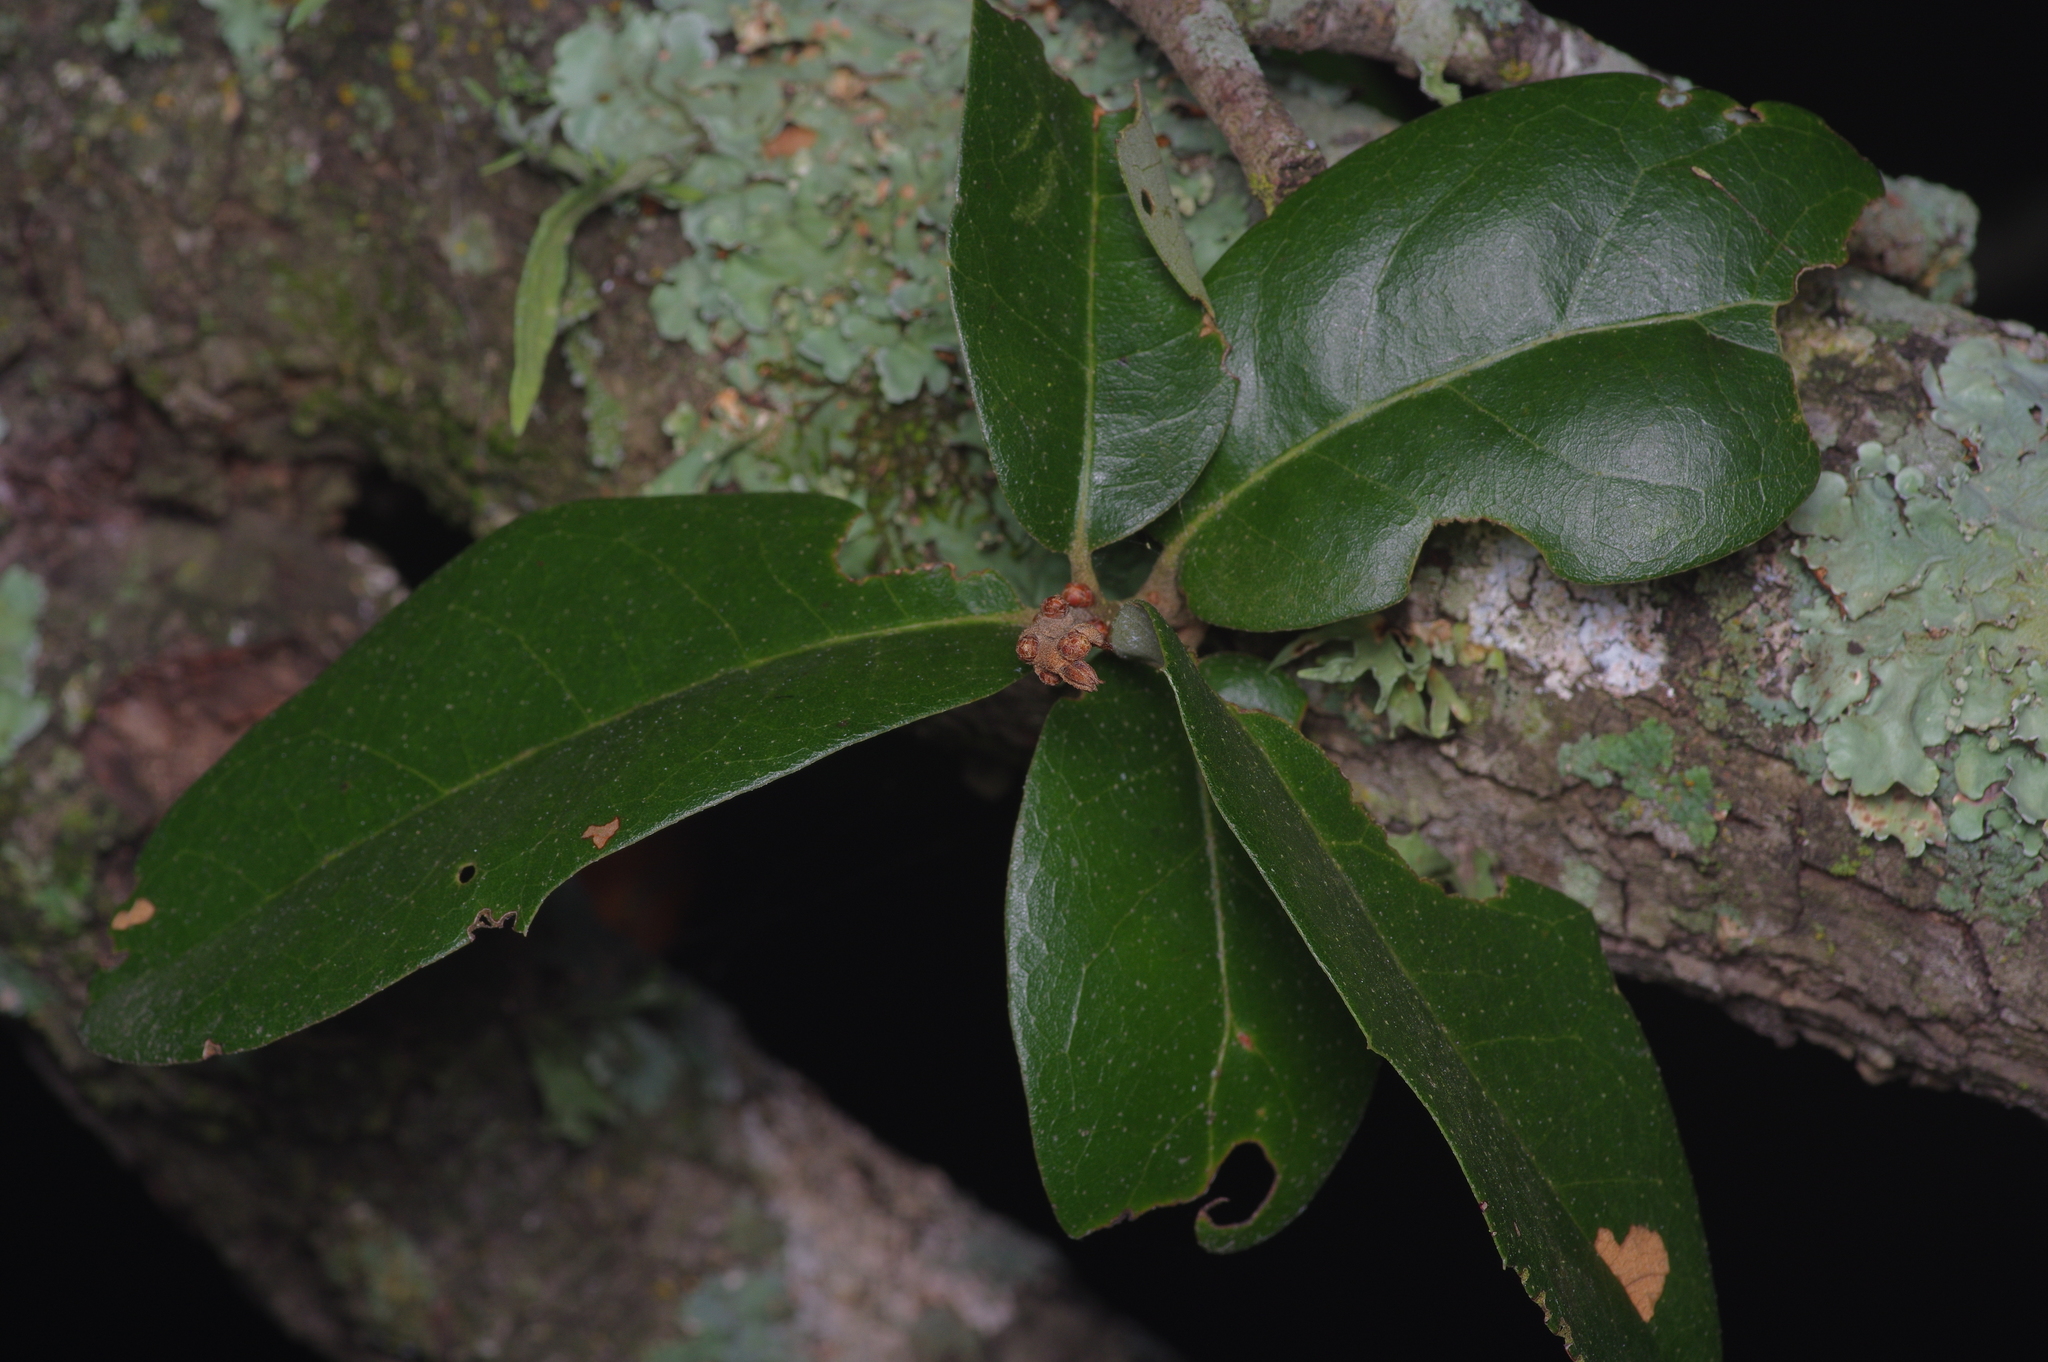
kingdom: Plantae
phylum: Tracheophyta
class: Magnoliopsida
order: Fagales
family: Fagaceae
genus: Quercus
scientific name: Quercus fusiformis
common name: Texas live oak
